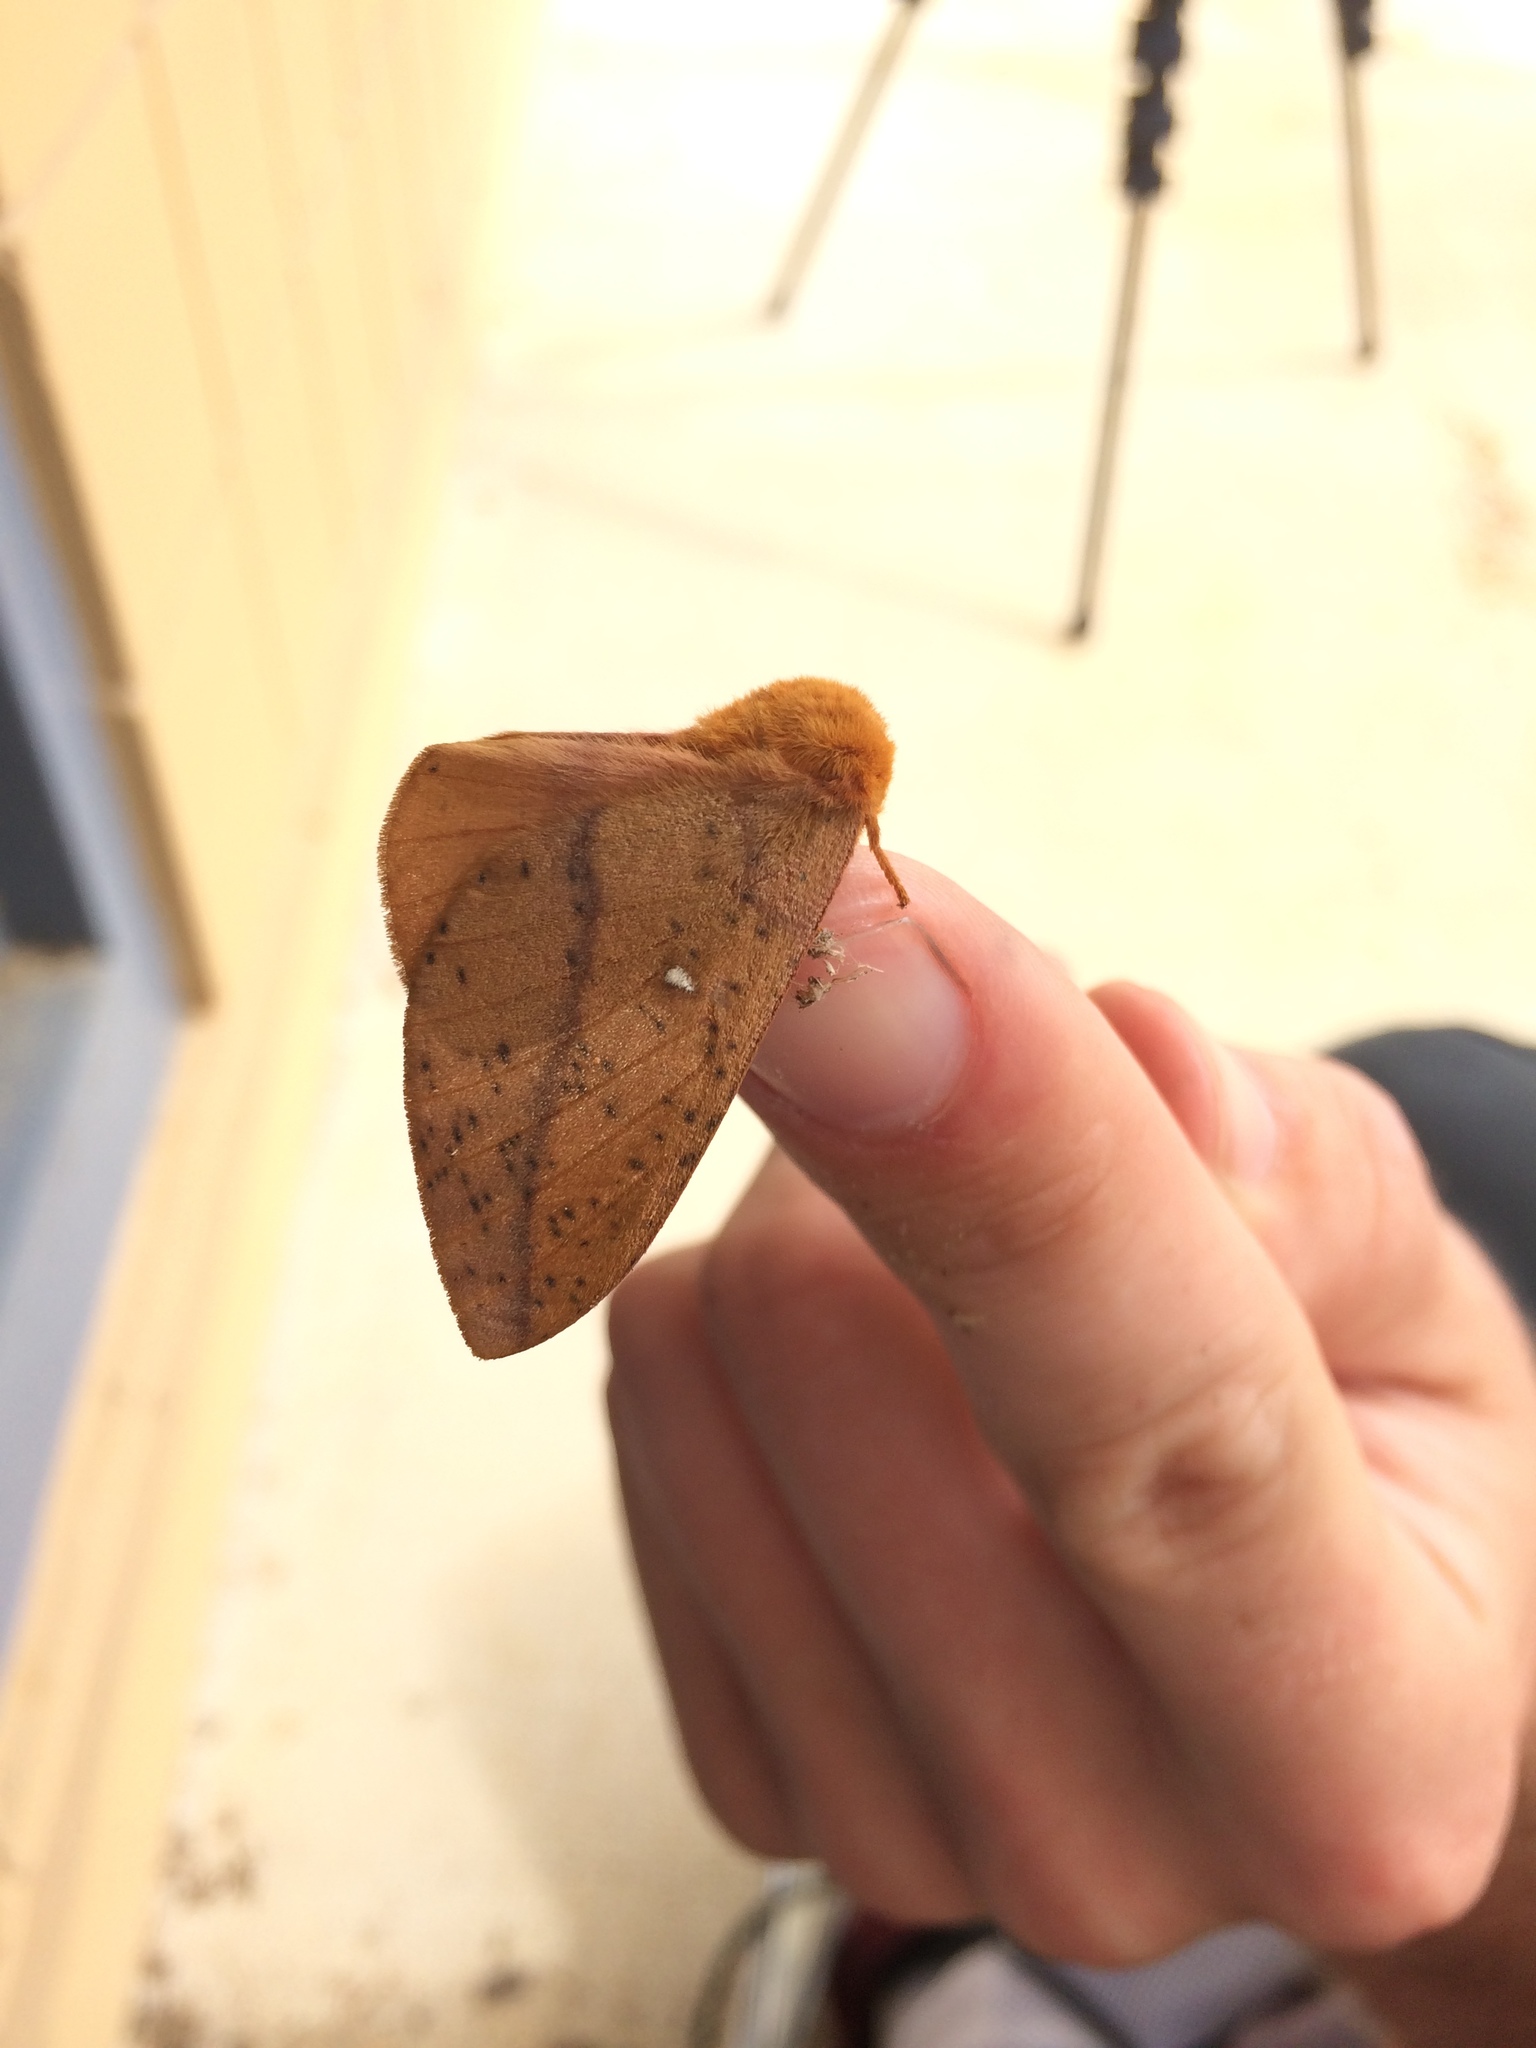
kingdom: Animalia
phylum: Arthropoda
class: Insecta
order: Lepidoptera
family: Saturniidae
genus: Anisota
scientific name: Anisota stigma
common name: Spiny oakworm moth
